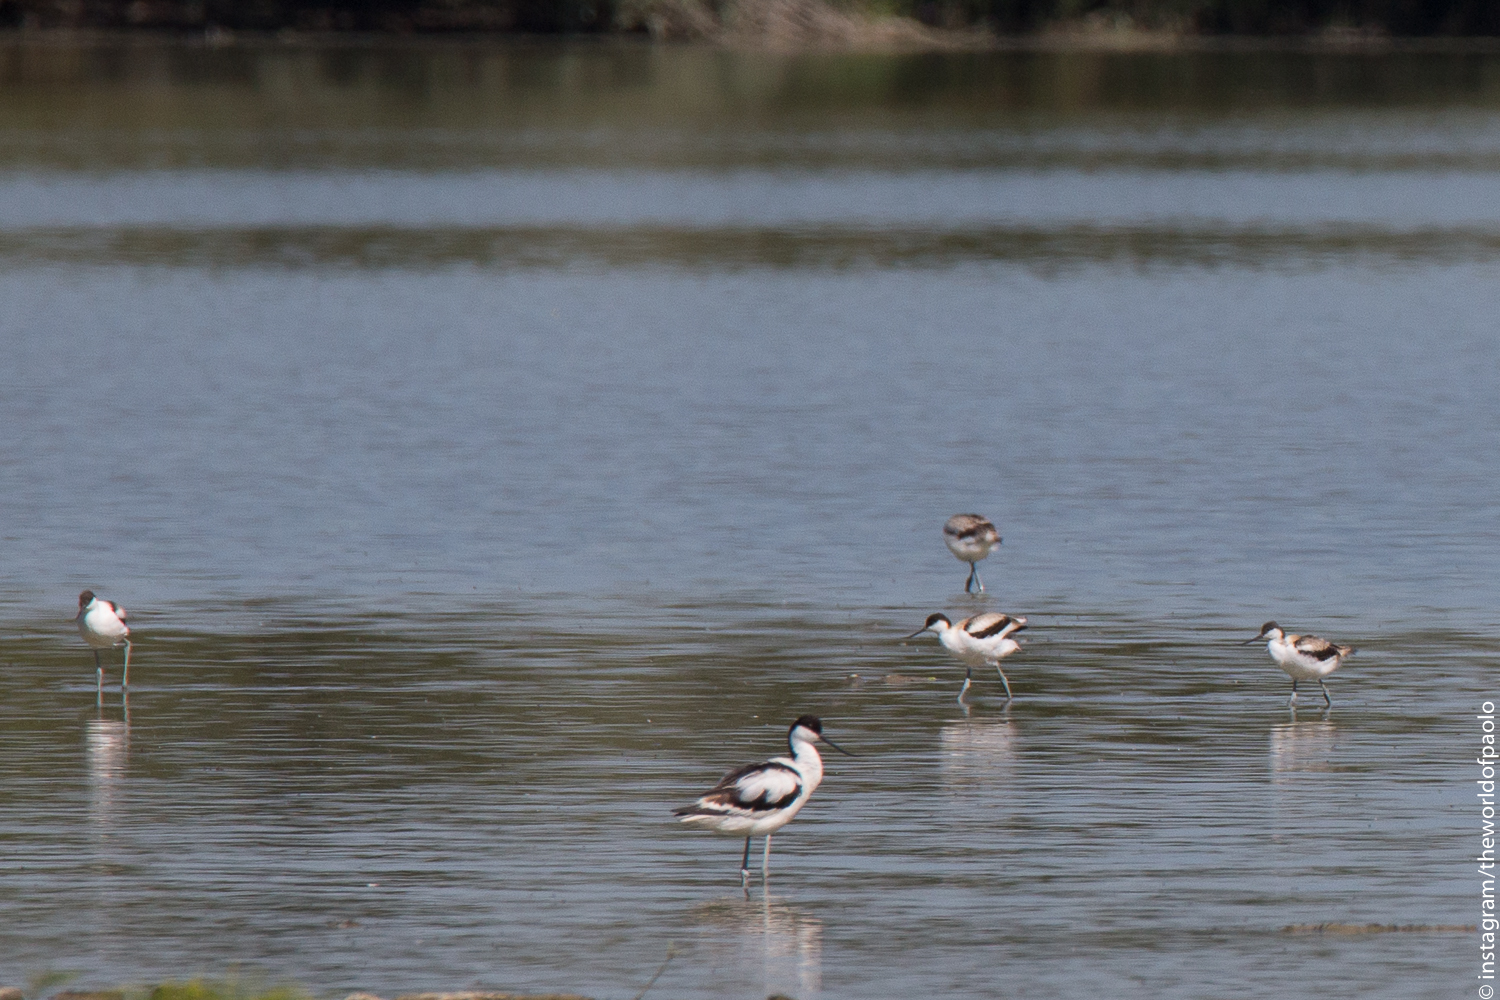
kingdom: Animalia
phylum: Chordata
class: Aves
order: Charadriiformes
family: Recurvirostridae
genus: Recurvirostra
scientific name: Recurvirostra avosetta
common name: Pied avocet
